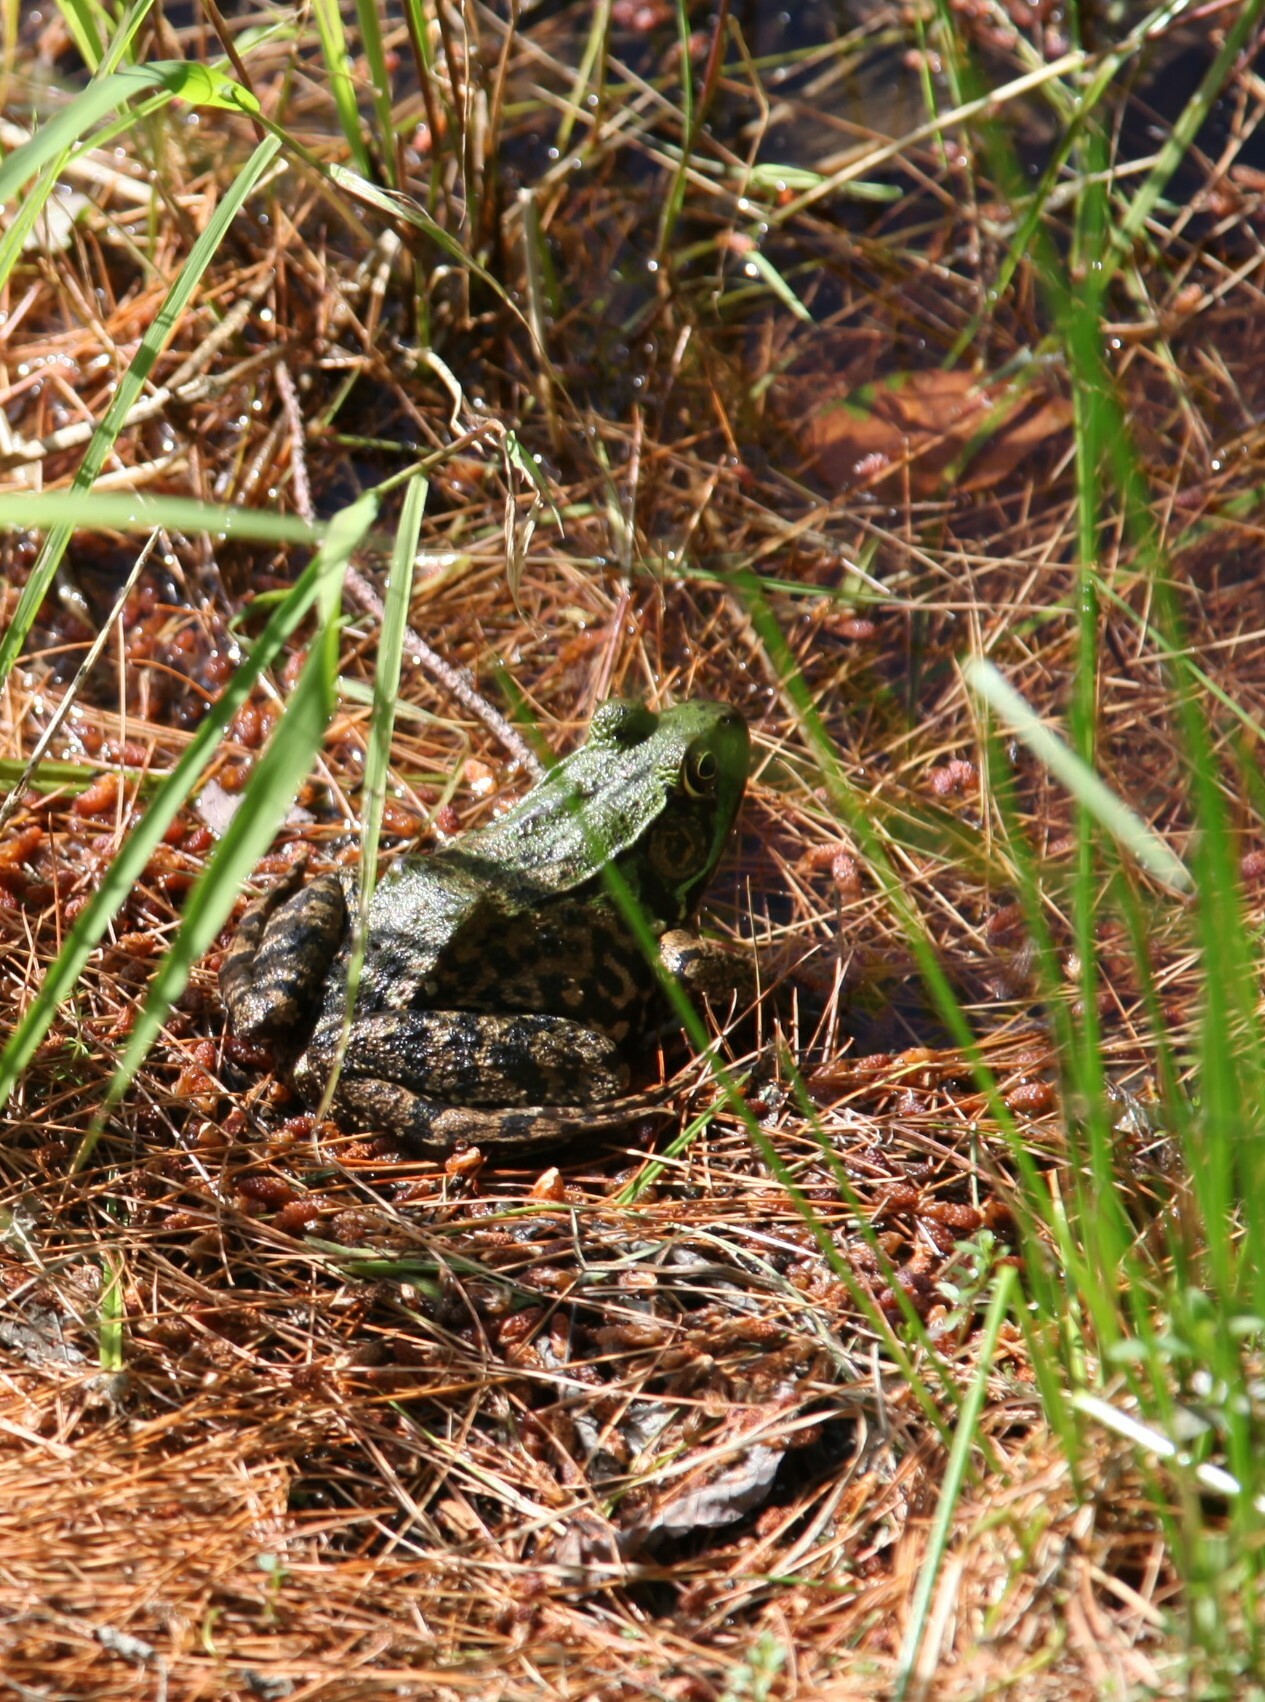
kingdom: Animalia
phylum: Chordata
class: Amphibia
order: Anura
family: Ranidae
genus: Lithobates
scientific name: Lithobates clamitans
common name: Green frog
